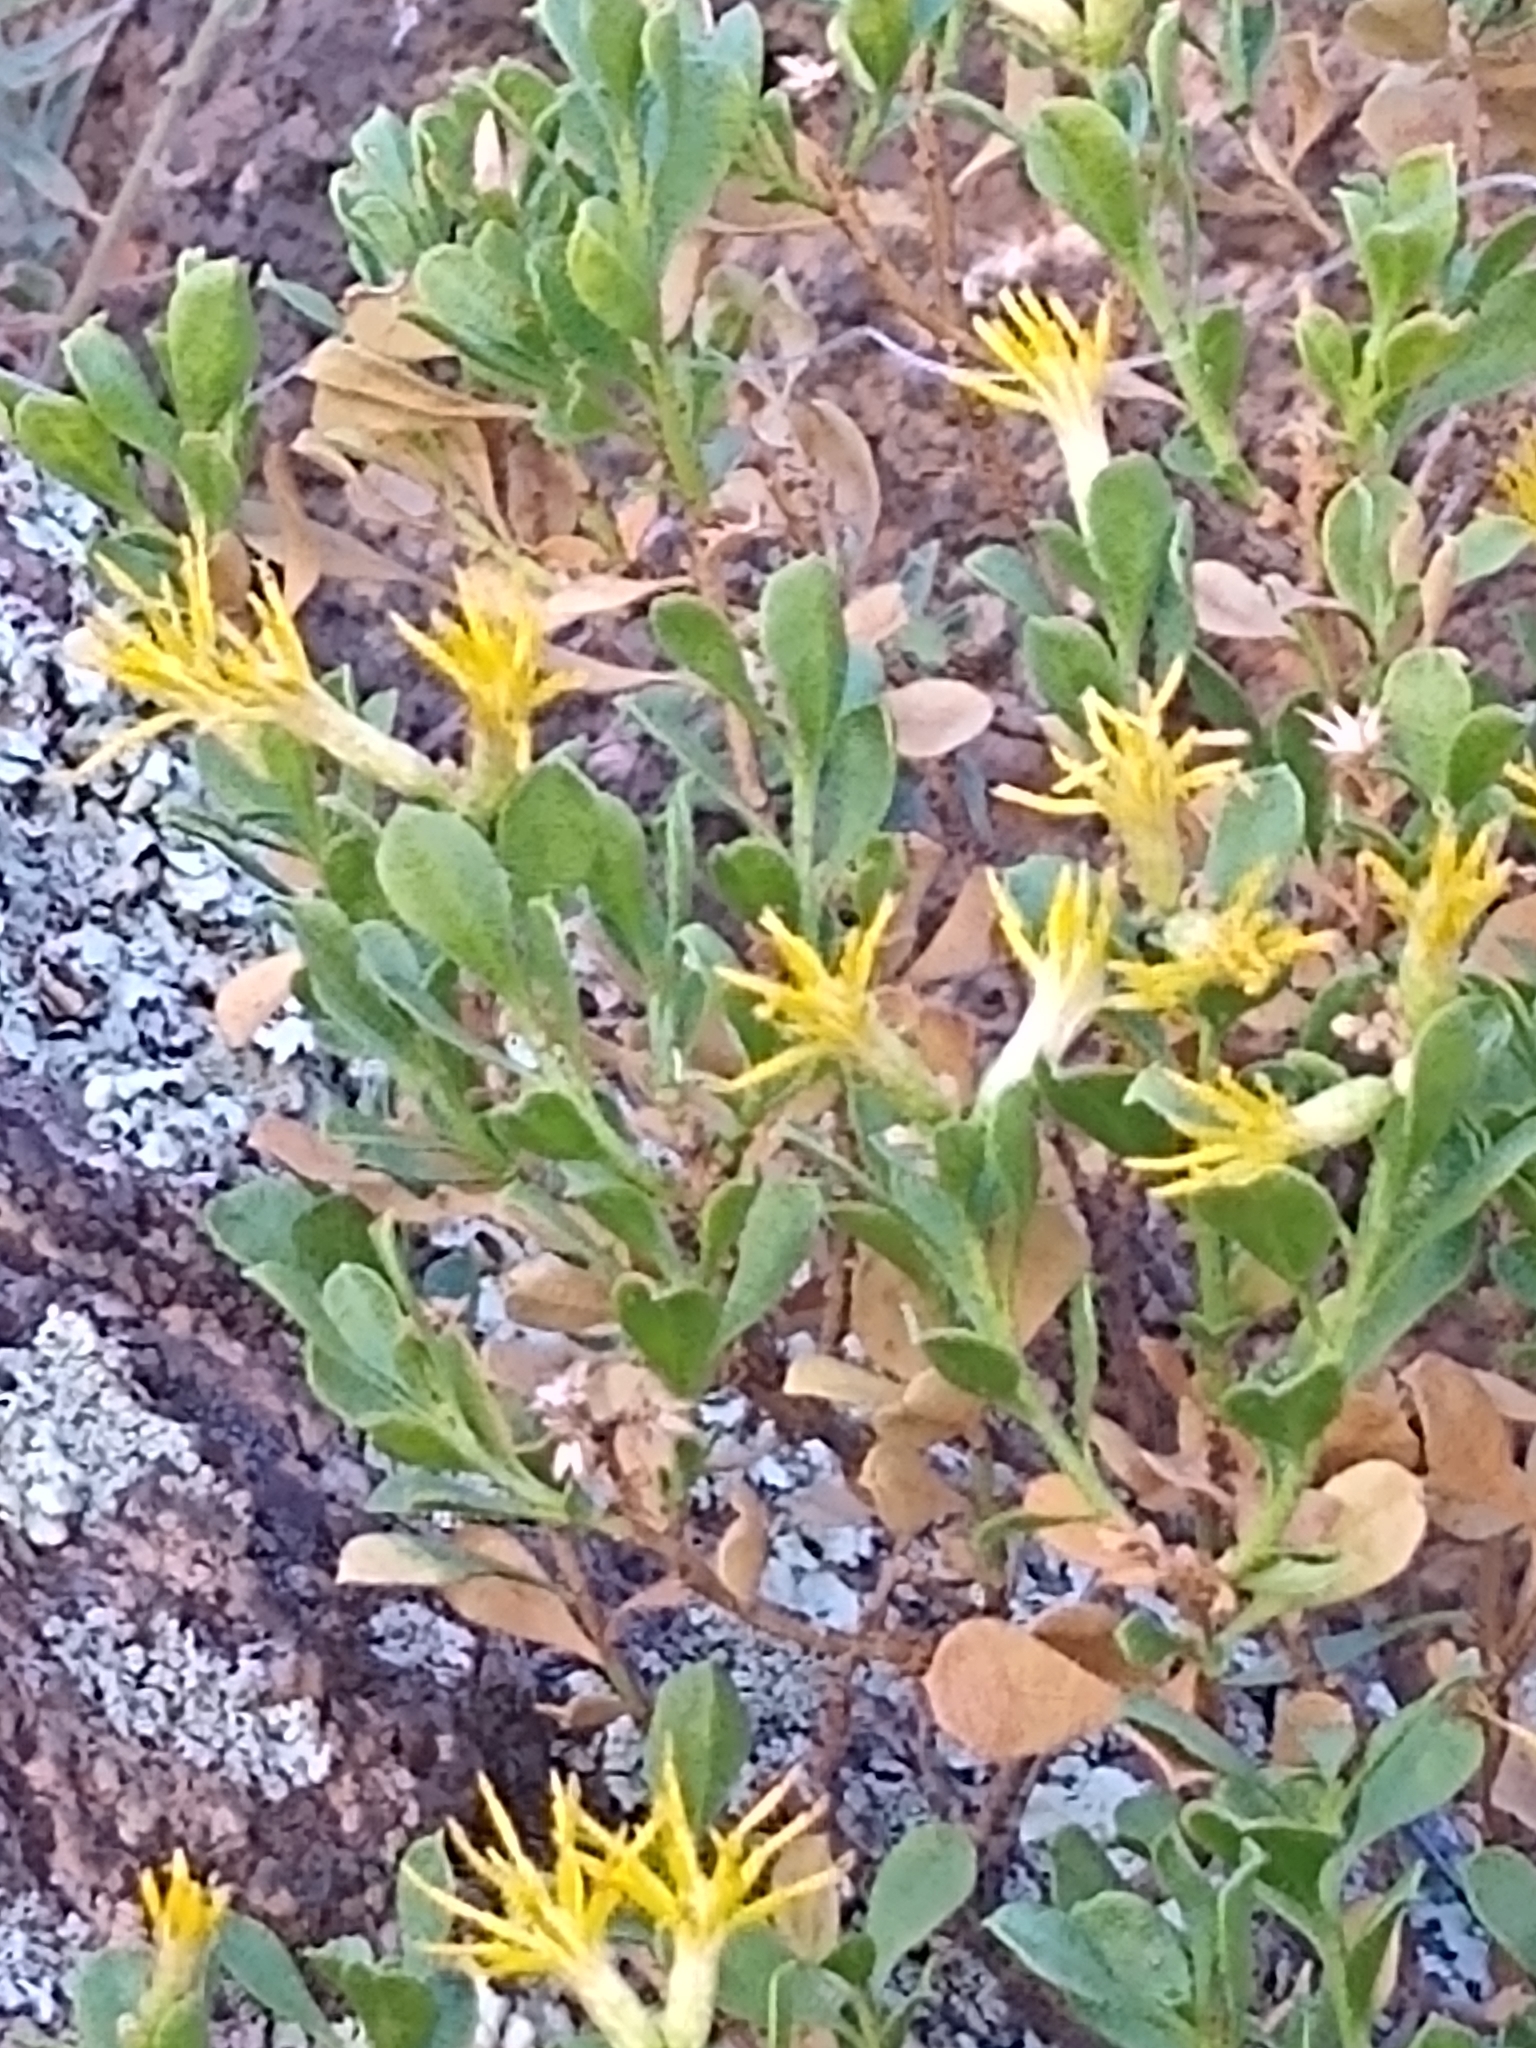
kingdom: Plantae
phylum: Tracheophyta
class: Magnoliopsida
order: Asterales
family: Asteraceae
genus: Ericameria
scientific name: Ericameria cuneata
